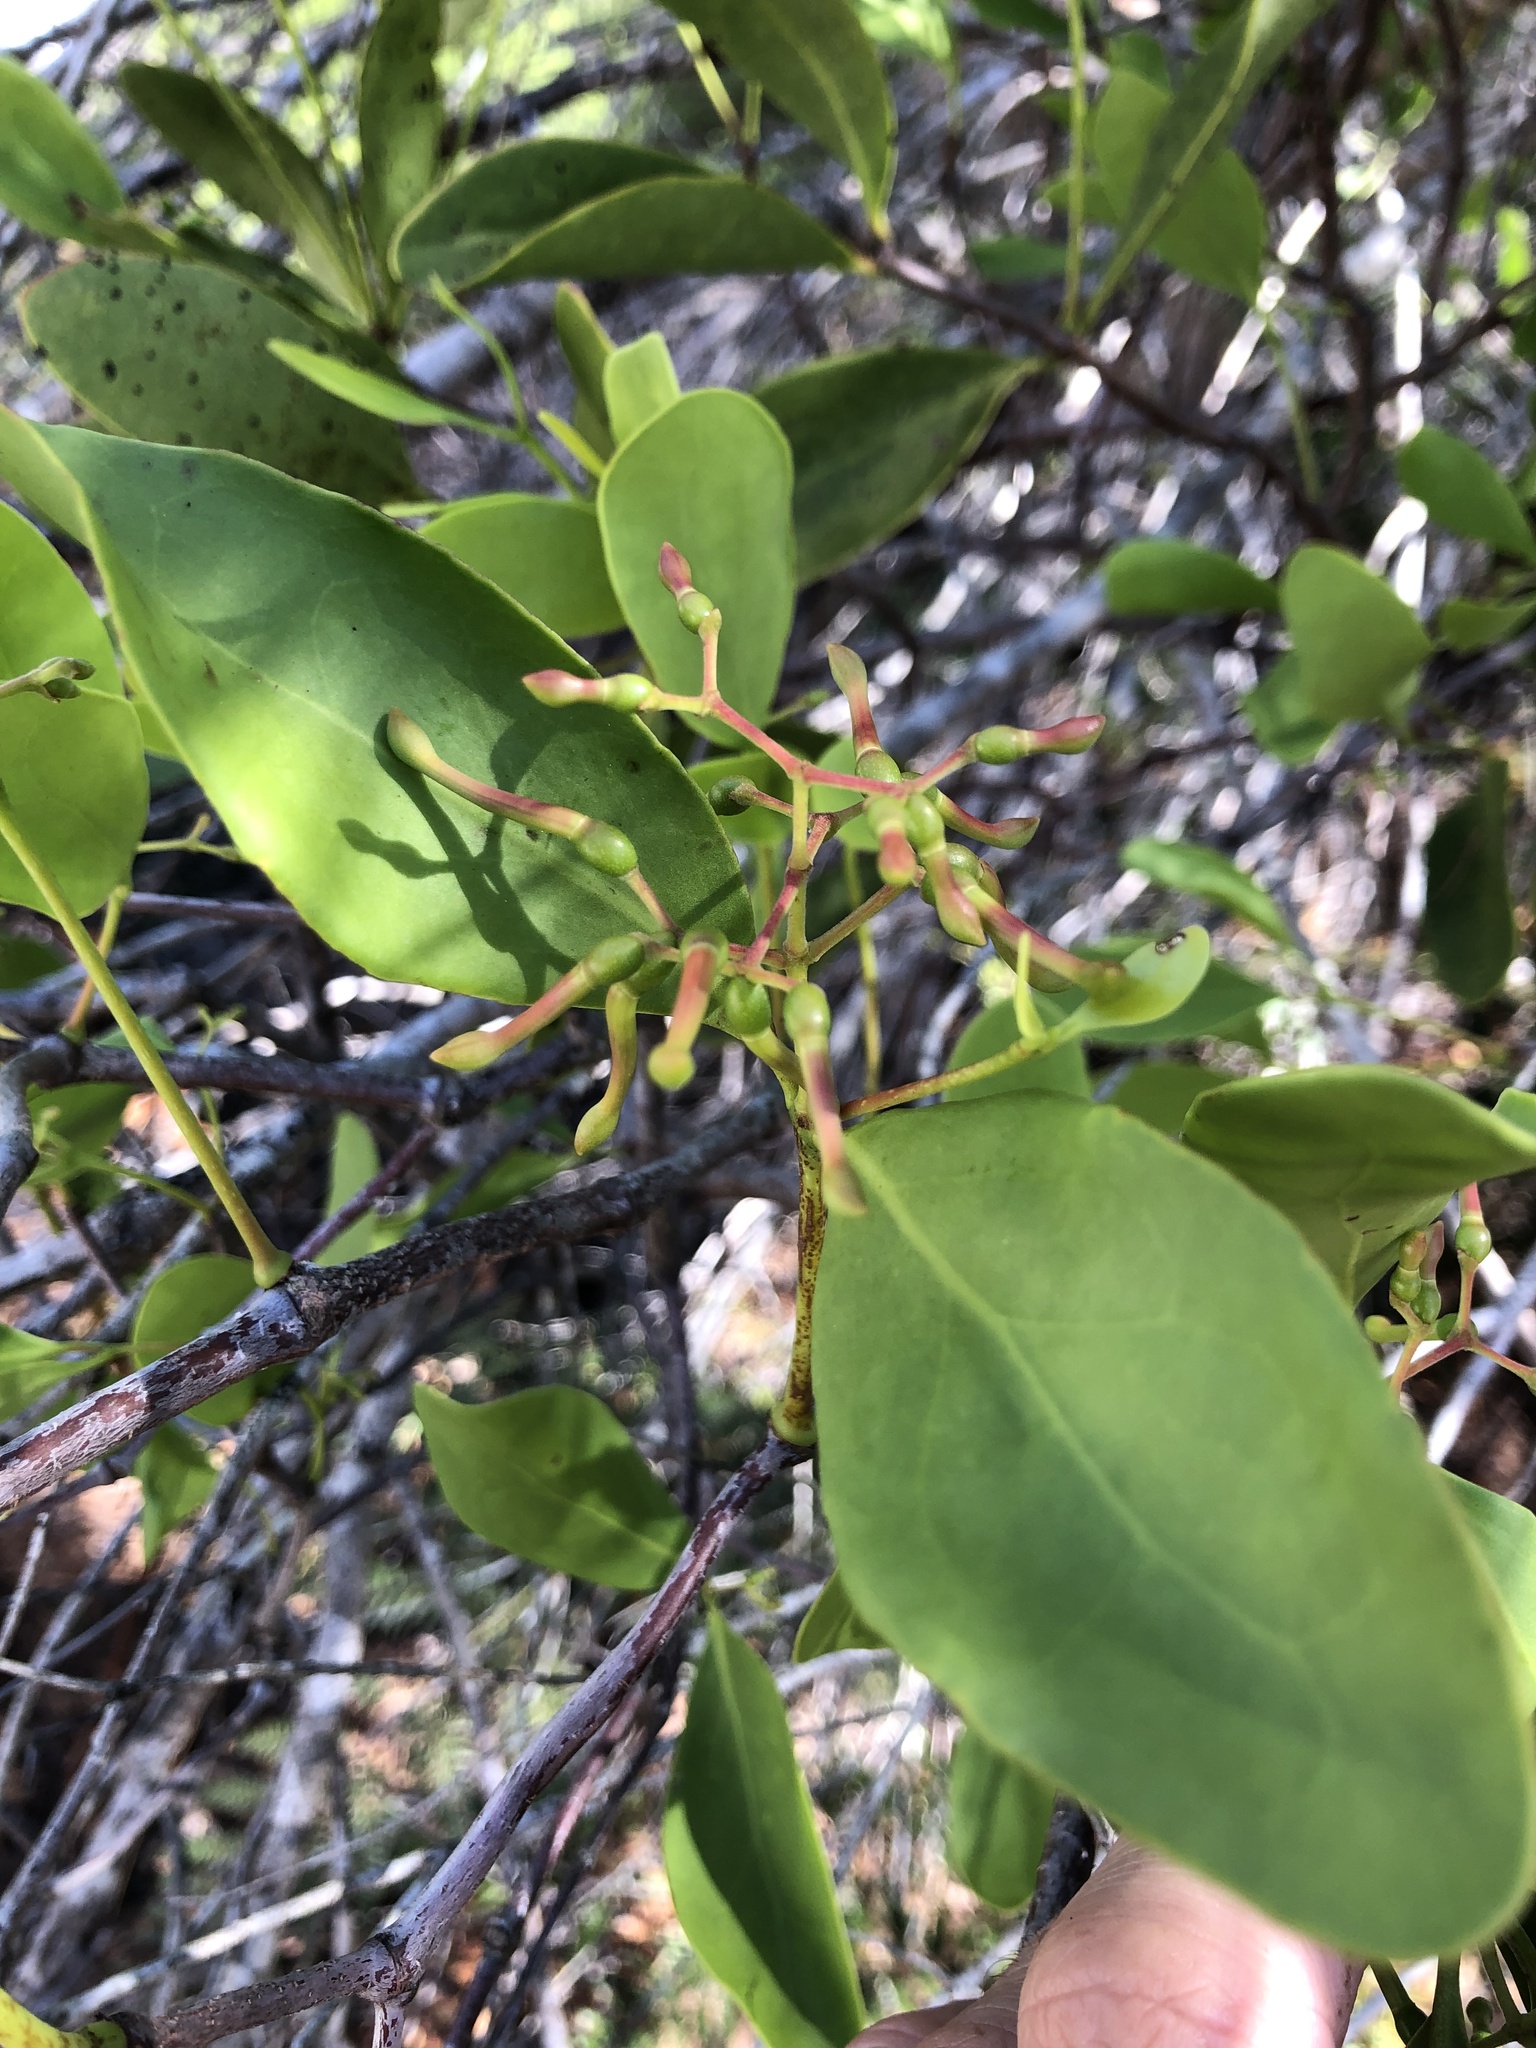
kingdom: Plantae
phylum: Tracheophyta
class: Magnoliopsida
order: Santalales
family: Loranthaceae
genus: Muellerina
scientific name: Muellerina celastroides
